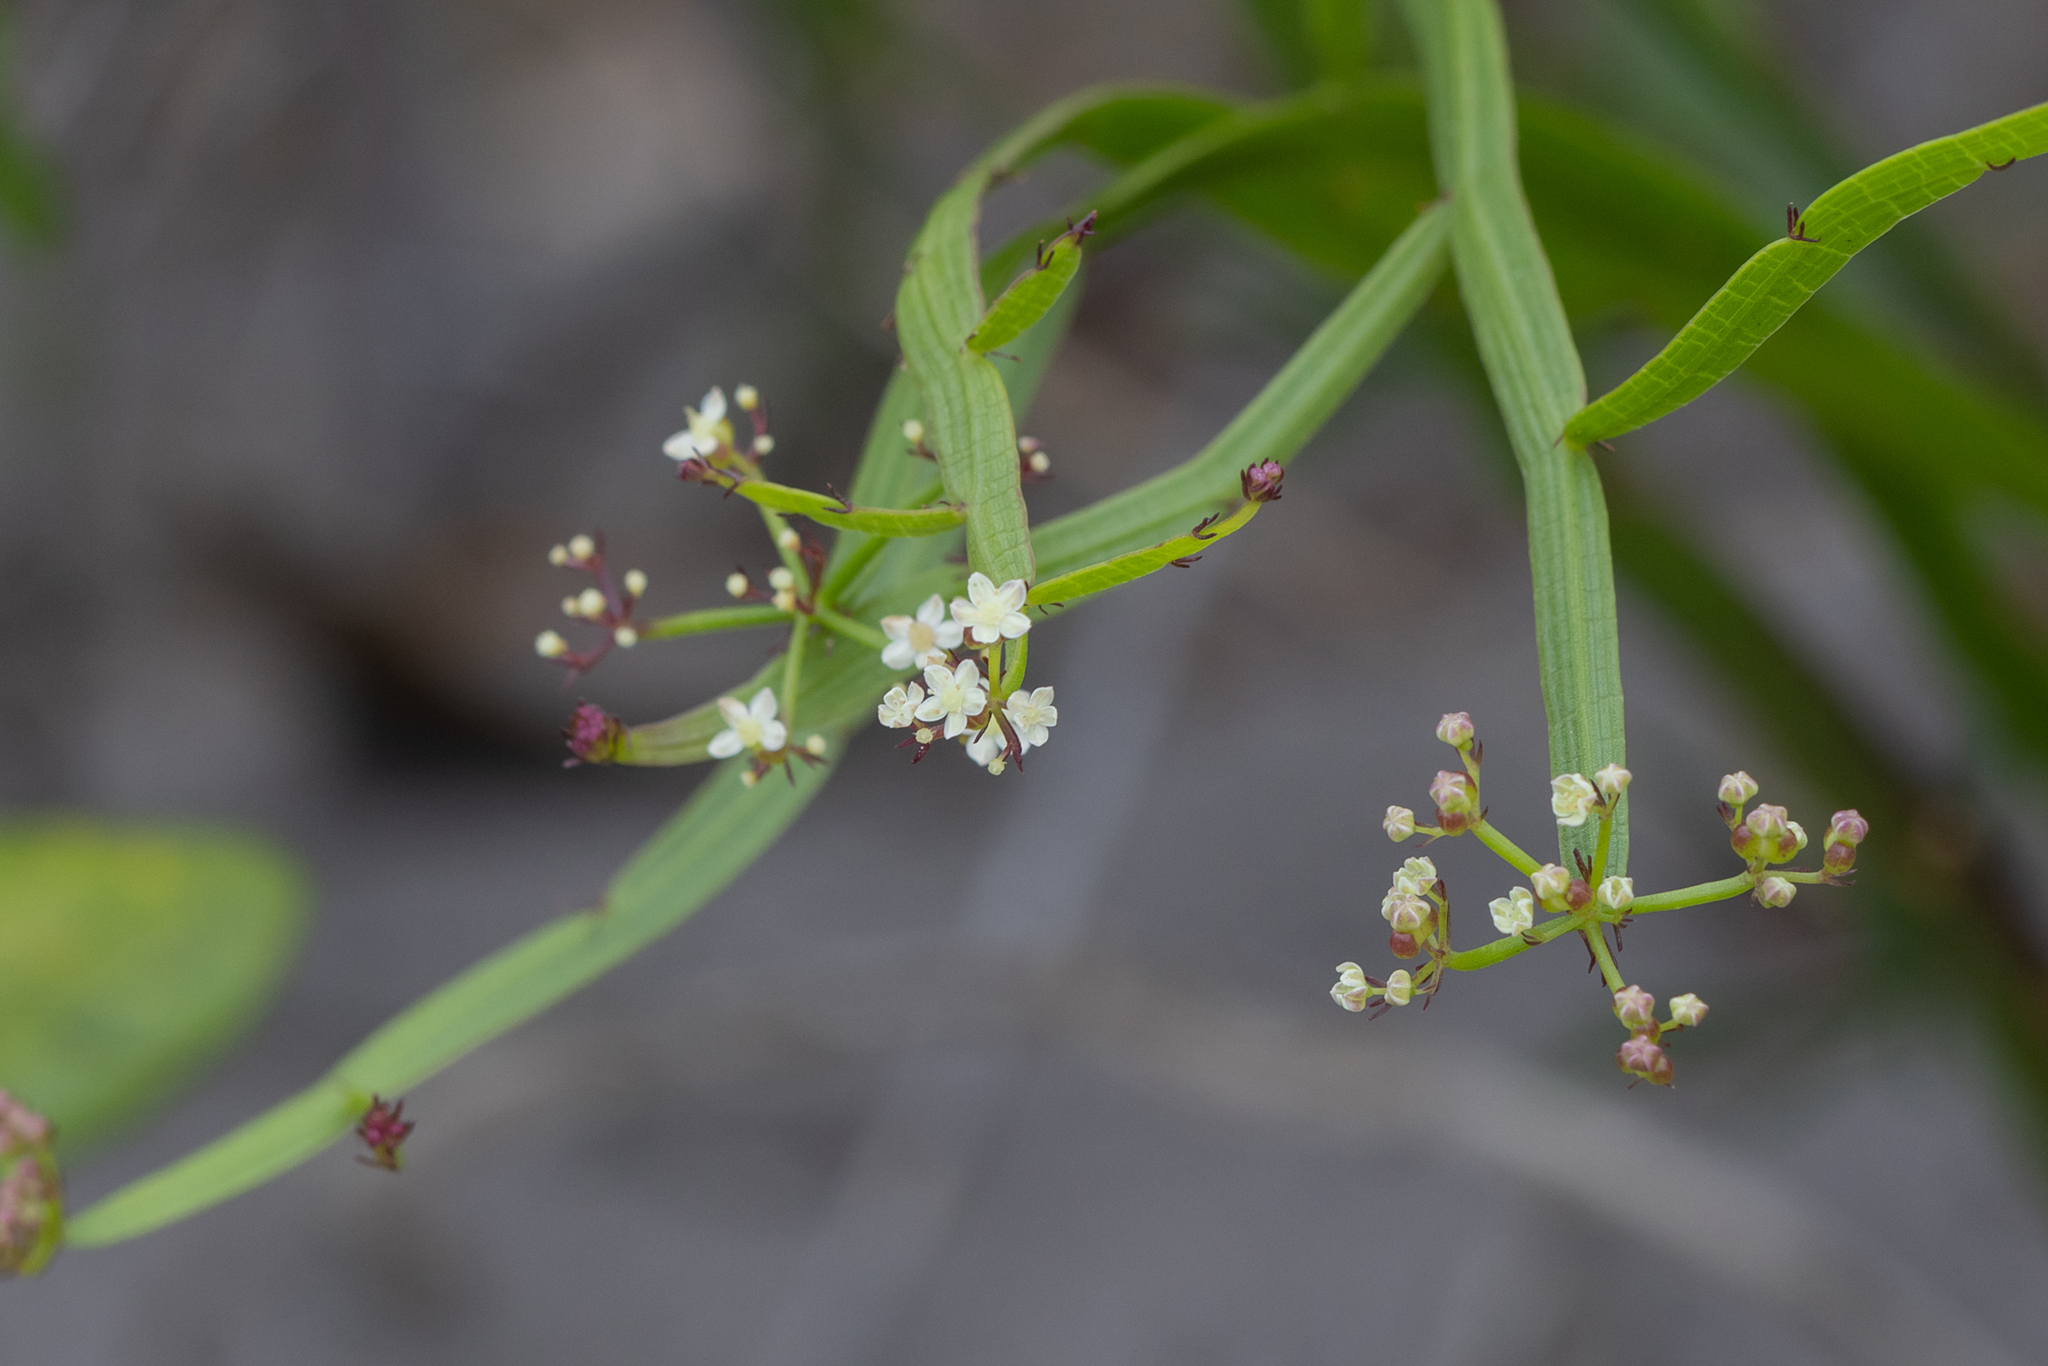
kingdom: Plantae
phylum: Tracheophyta
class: Magnoliopsida
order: Apiales
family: Apiaceae
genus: Platysace
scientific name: Platysace compressa
